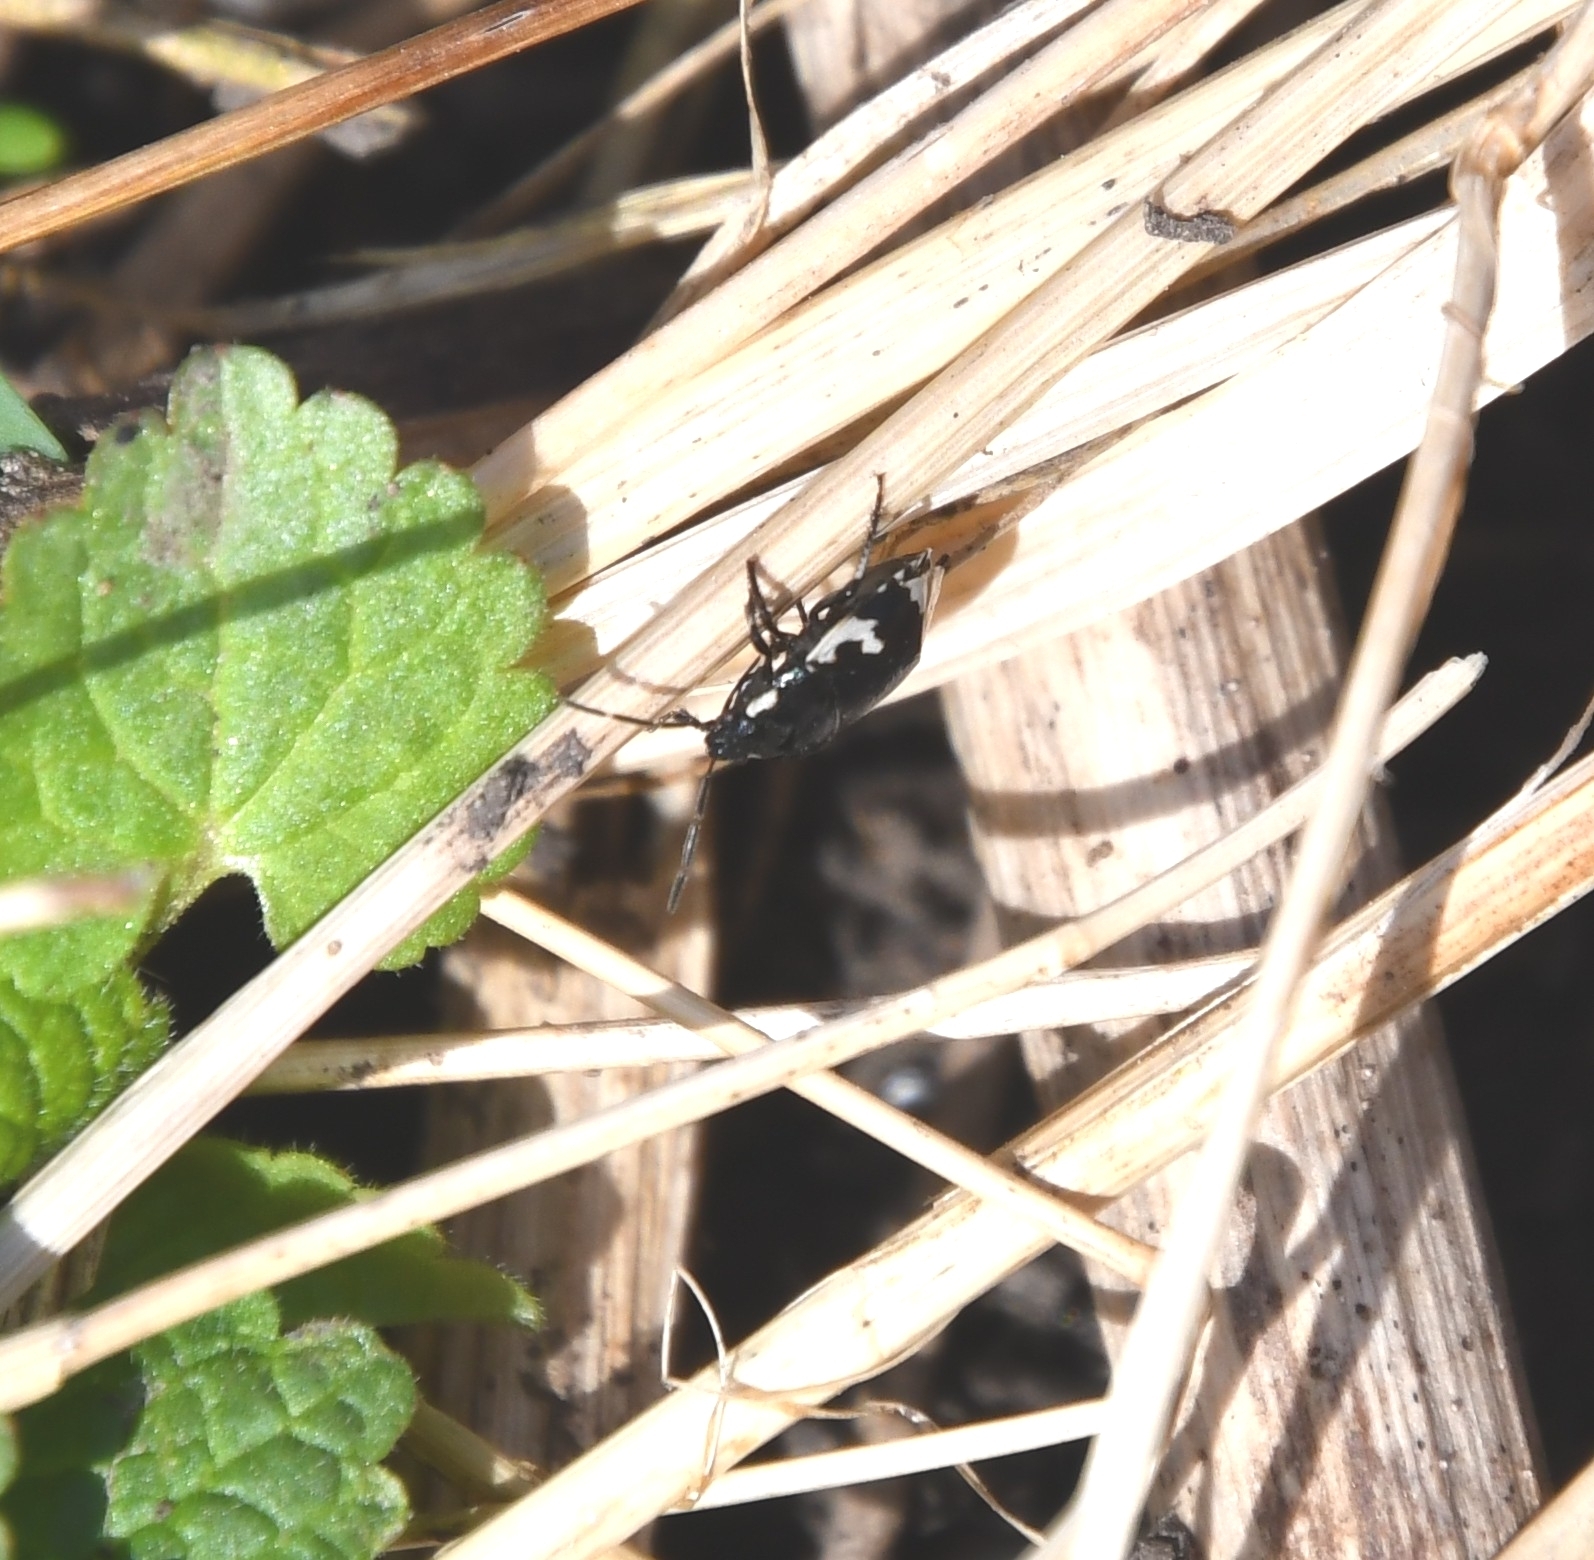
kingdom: Animalia
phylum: Arthropoda
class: Insecta
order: Hemiptera
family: Cydnidae
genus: Tritomegas
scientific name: Tritomegas bicolor
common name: Pied shieldbug
